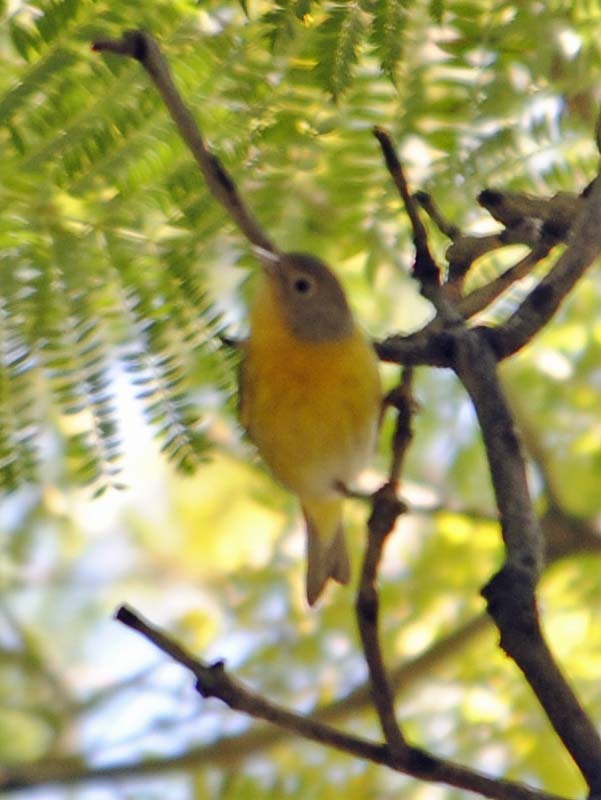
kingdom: Animalia
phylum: Chordata
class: Aves
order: Passeriformes
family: Parulidae
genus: Leiothlypis
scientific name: Leiothlypis ruficapilla
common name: Nashville warbler
